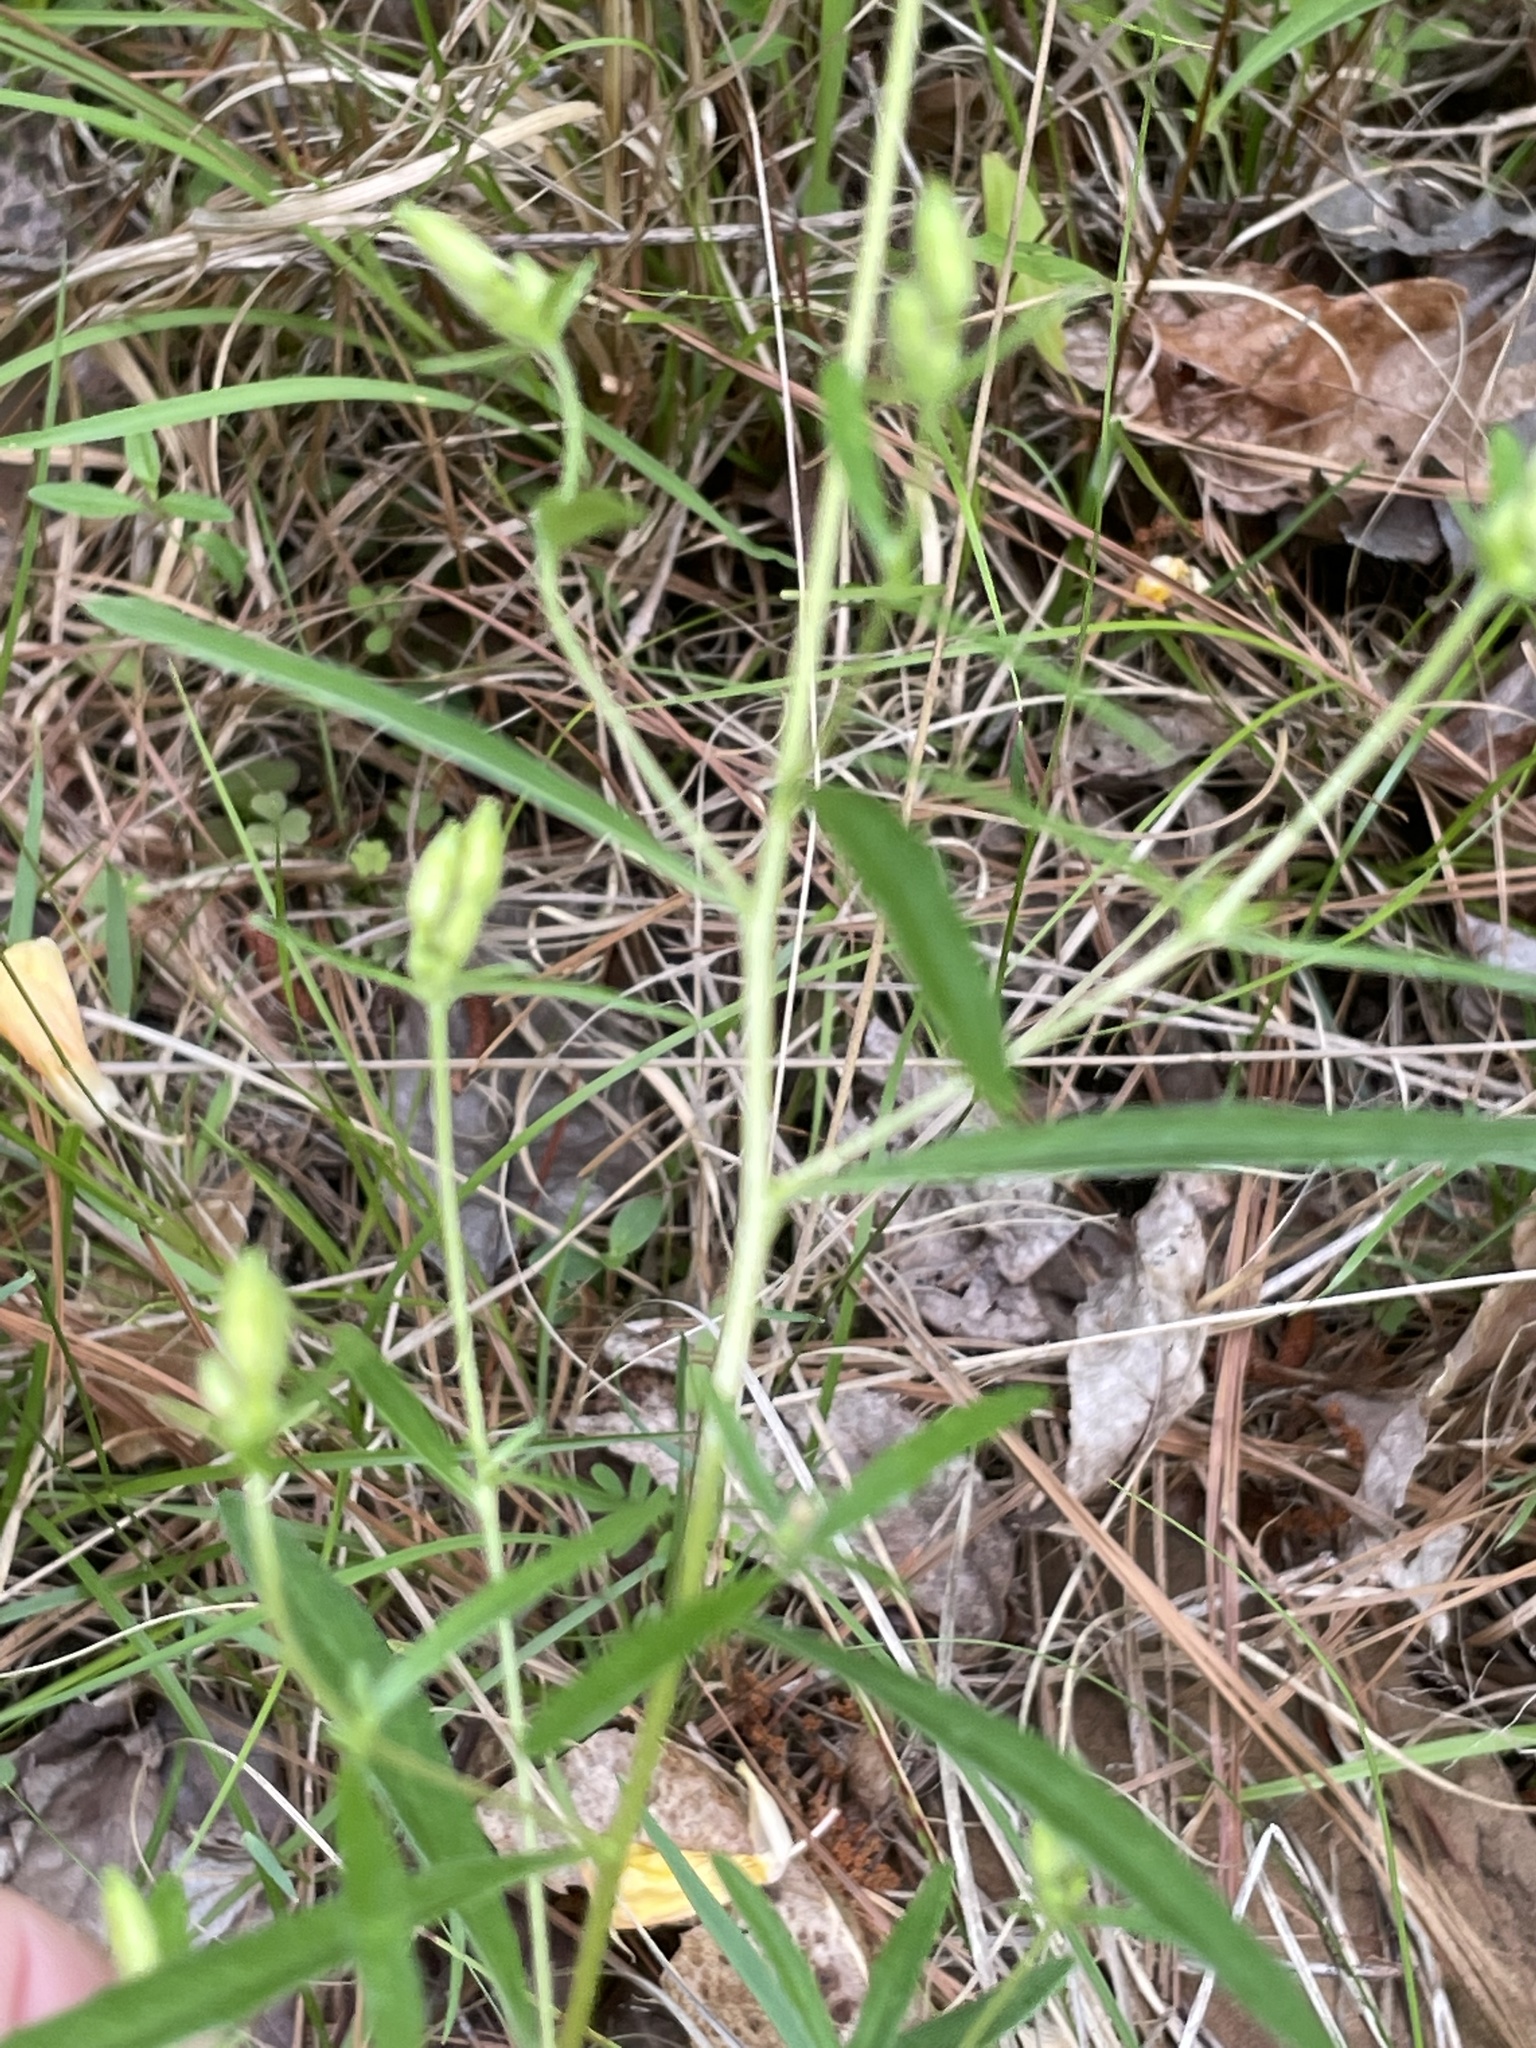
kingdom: Plantae
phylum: Tracheophyta
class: Magnoliopsida
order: Myrtales
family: Onagraceae
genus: Oenothera
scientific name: Oenothera fruticosa
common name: Southern sundrops
